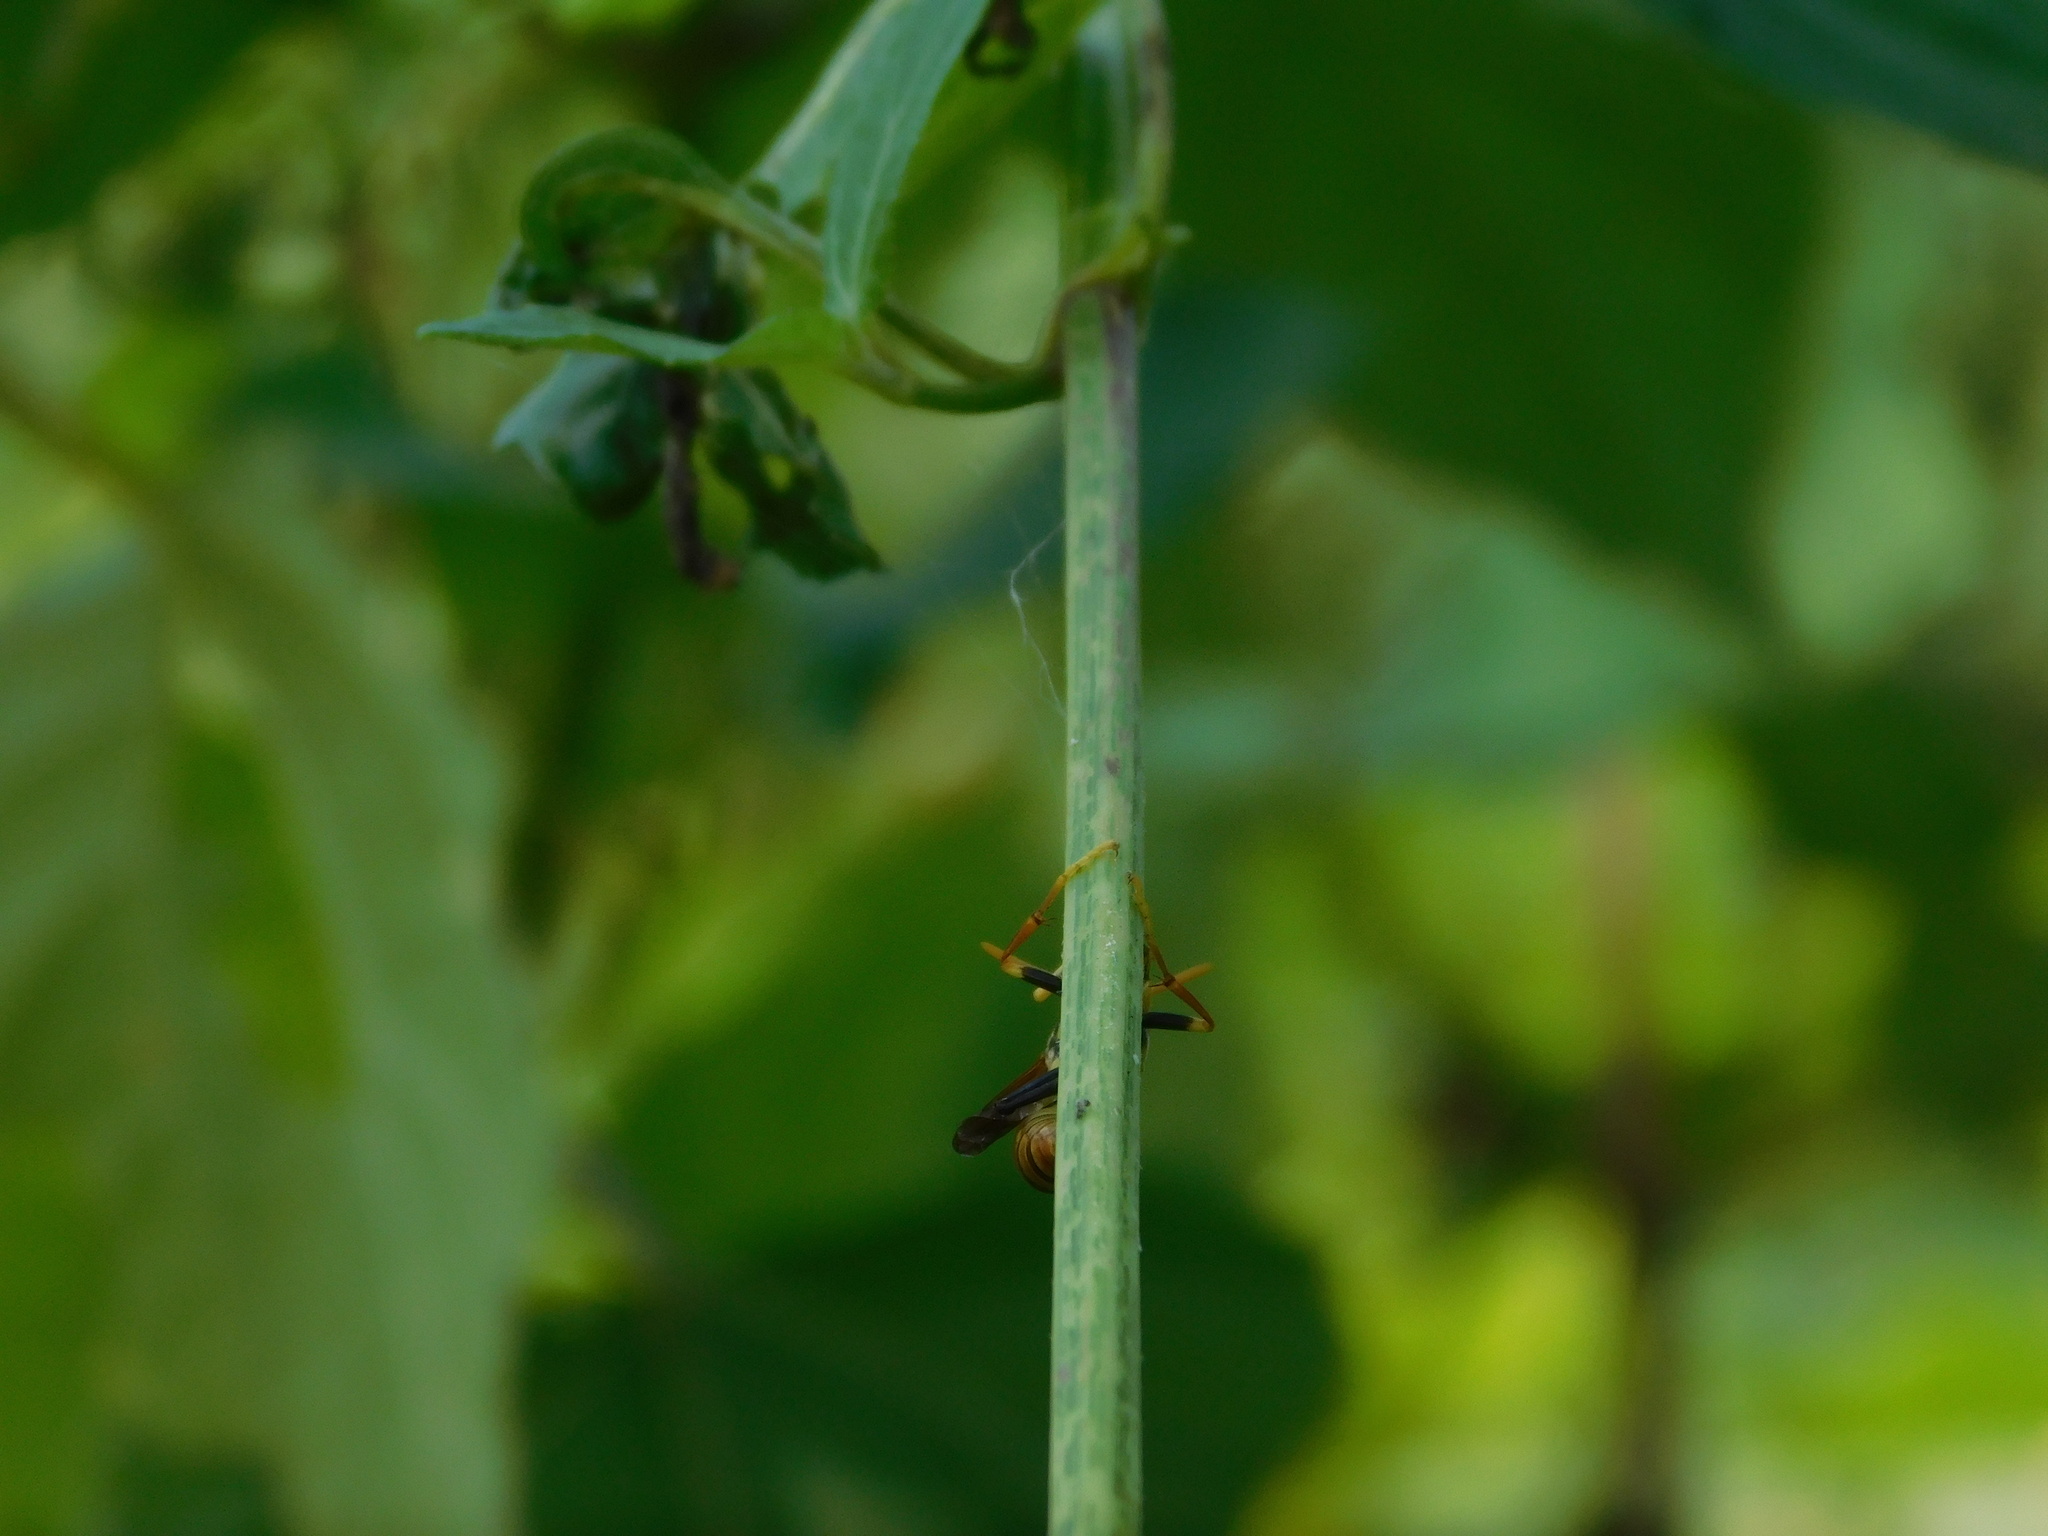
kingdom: Animalia
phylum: Arthropoda
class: Insecta
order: Hymenoptera
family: Eumenidae
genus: Polistes
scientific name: Polistes diabolicus
